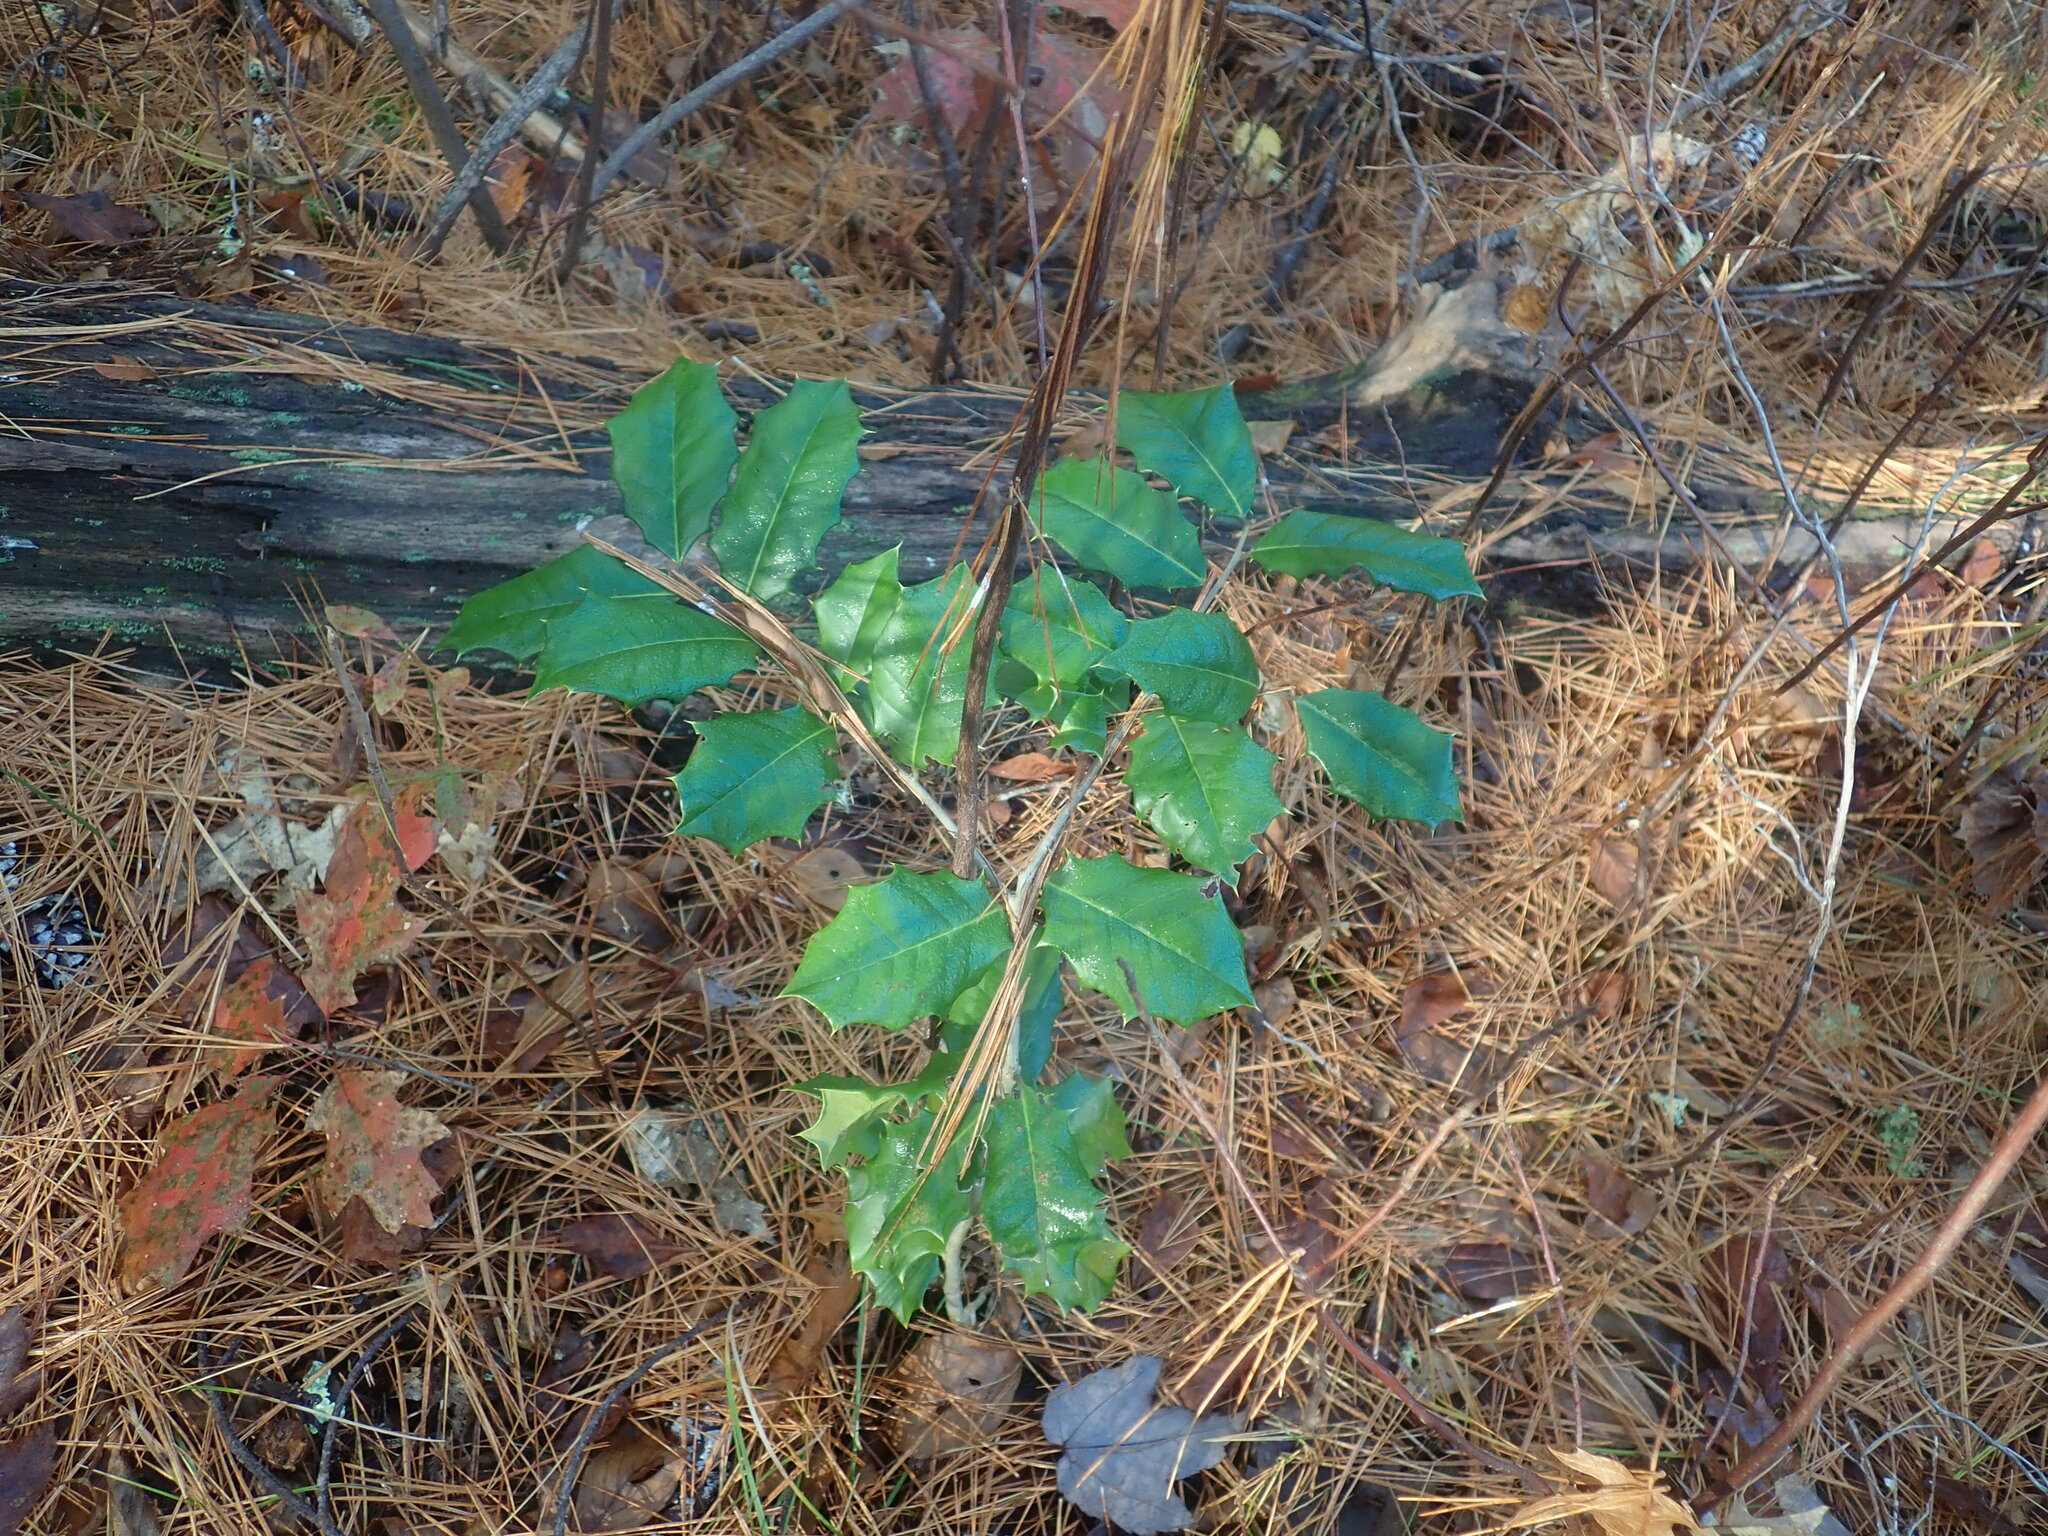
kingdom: Plantae
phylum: Tracheophyta
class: Magnoliopsida
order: Aquifoliales
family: Aquifoliaceae
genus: Ilex
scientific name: Ilex opaca
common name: American holly
